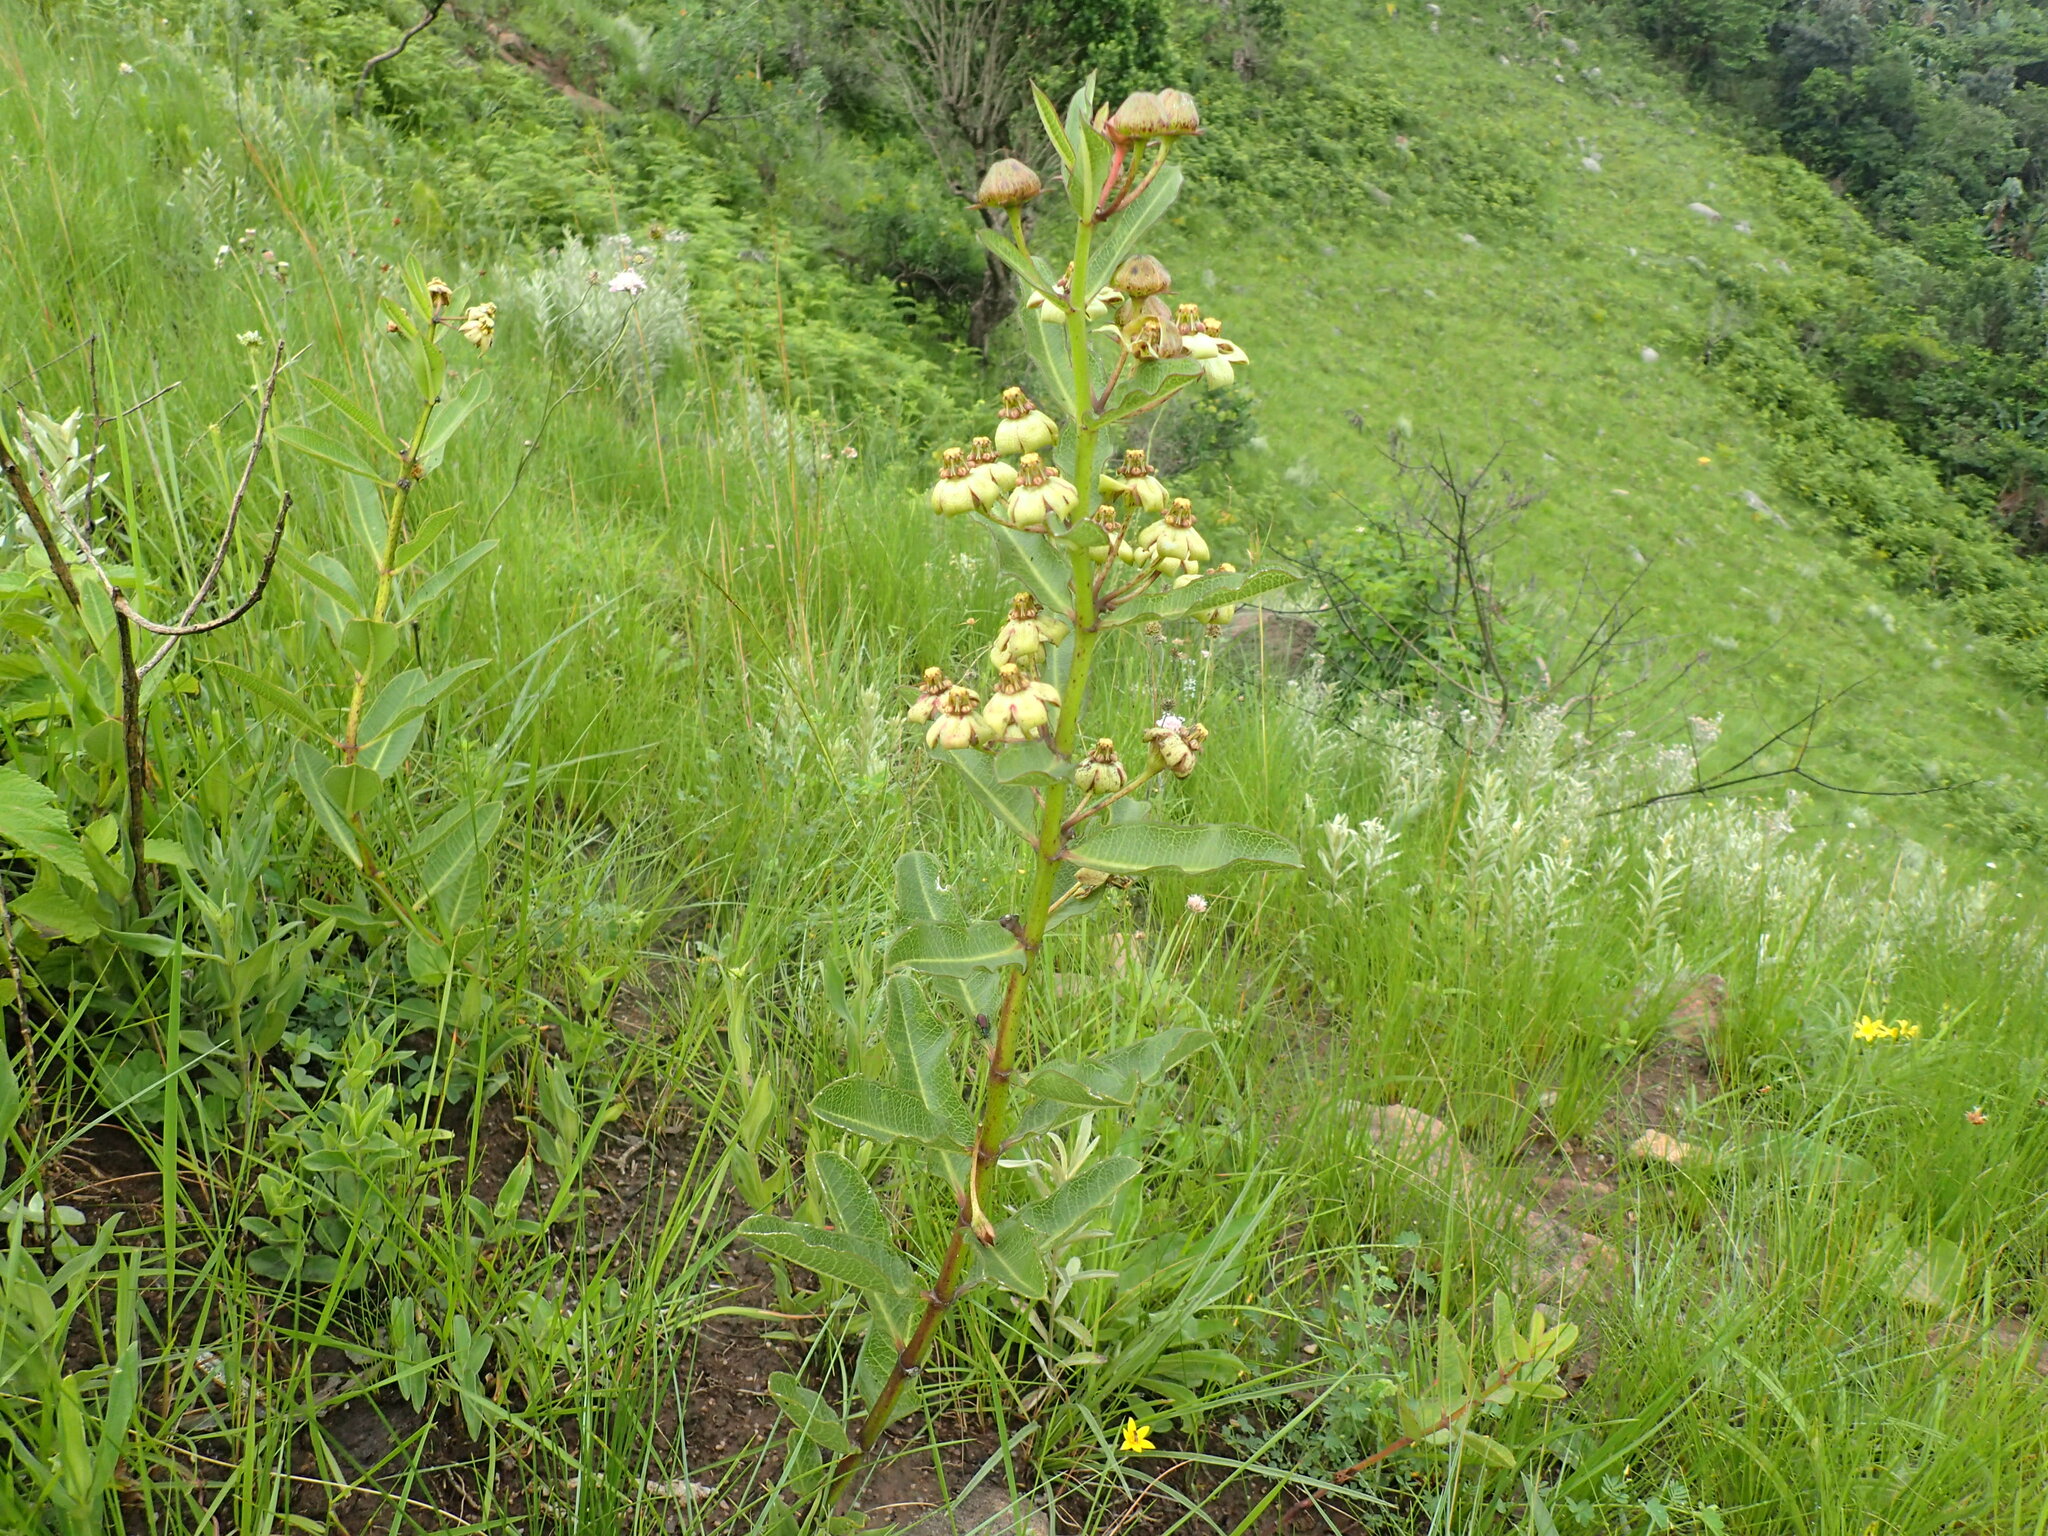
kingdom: Plantae
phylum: Tracheophyta
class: Magnoliopsida
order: Gentianales
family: Apocynaceae
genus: Pachycarpus
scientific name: Pachycarpus asperifolius
